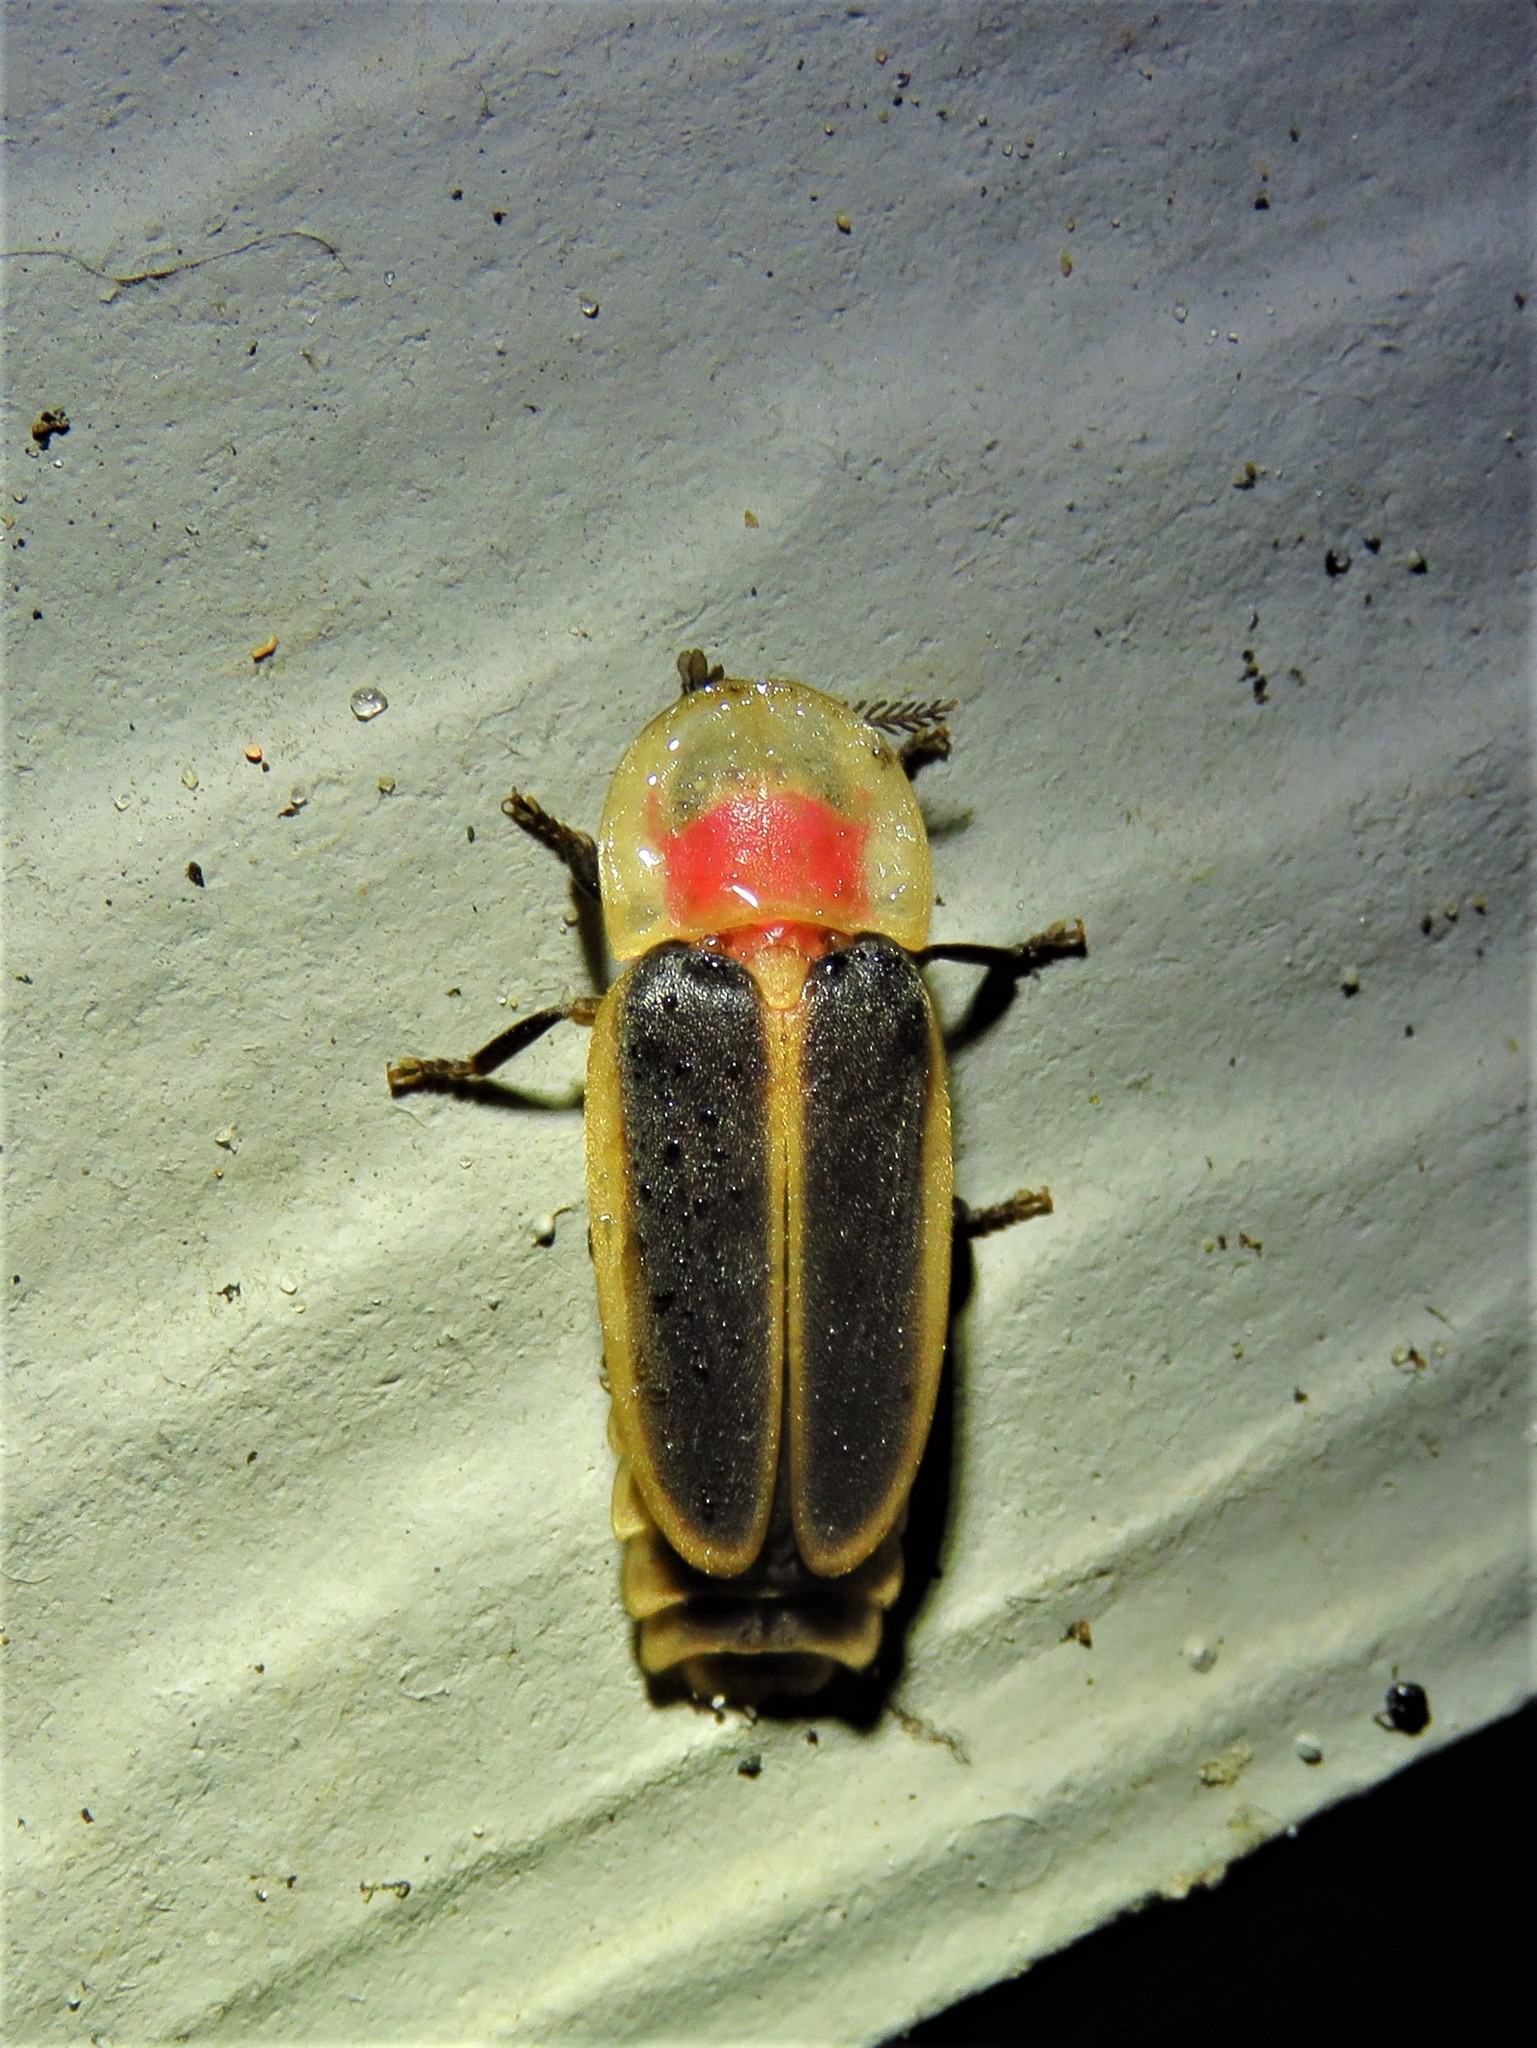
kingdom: Animalia
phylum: Arthropoda
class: Insecta
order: Coleoptera
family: Lampyridae
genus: Pleotomus
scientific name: Pleotomus pallens
